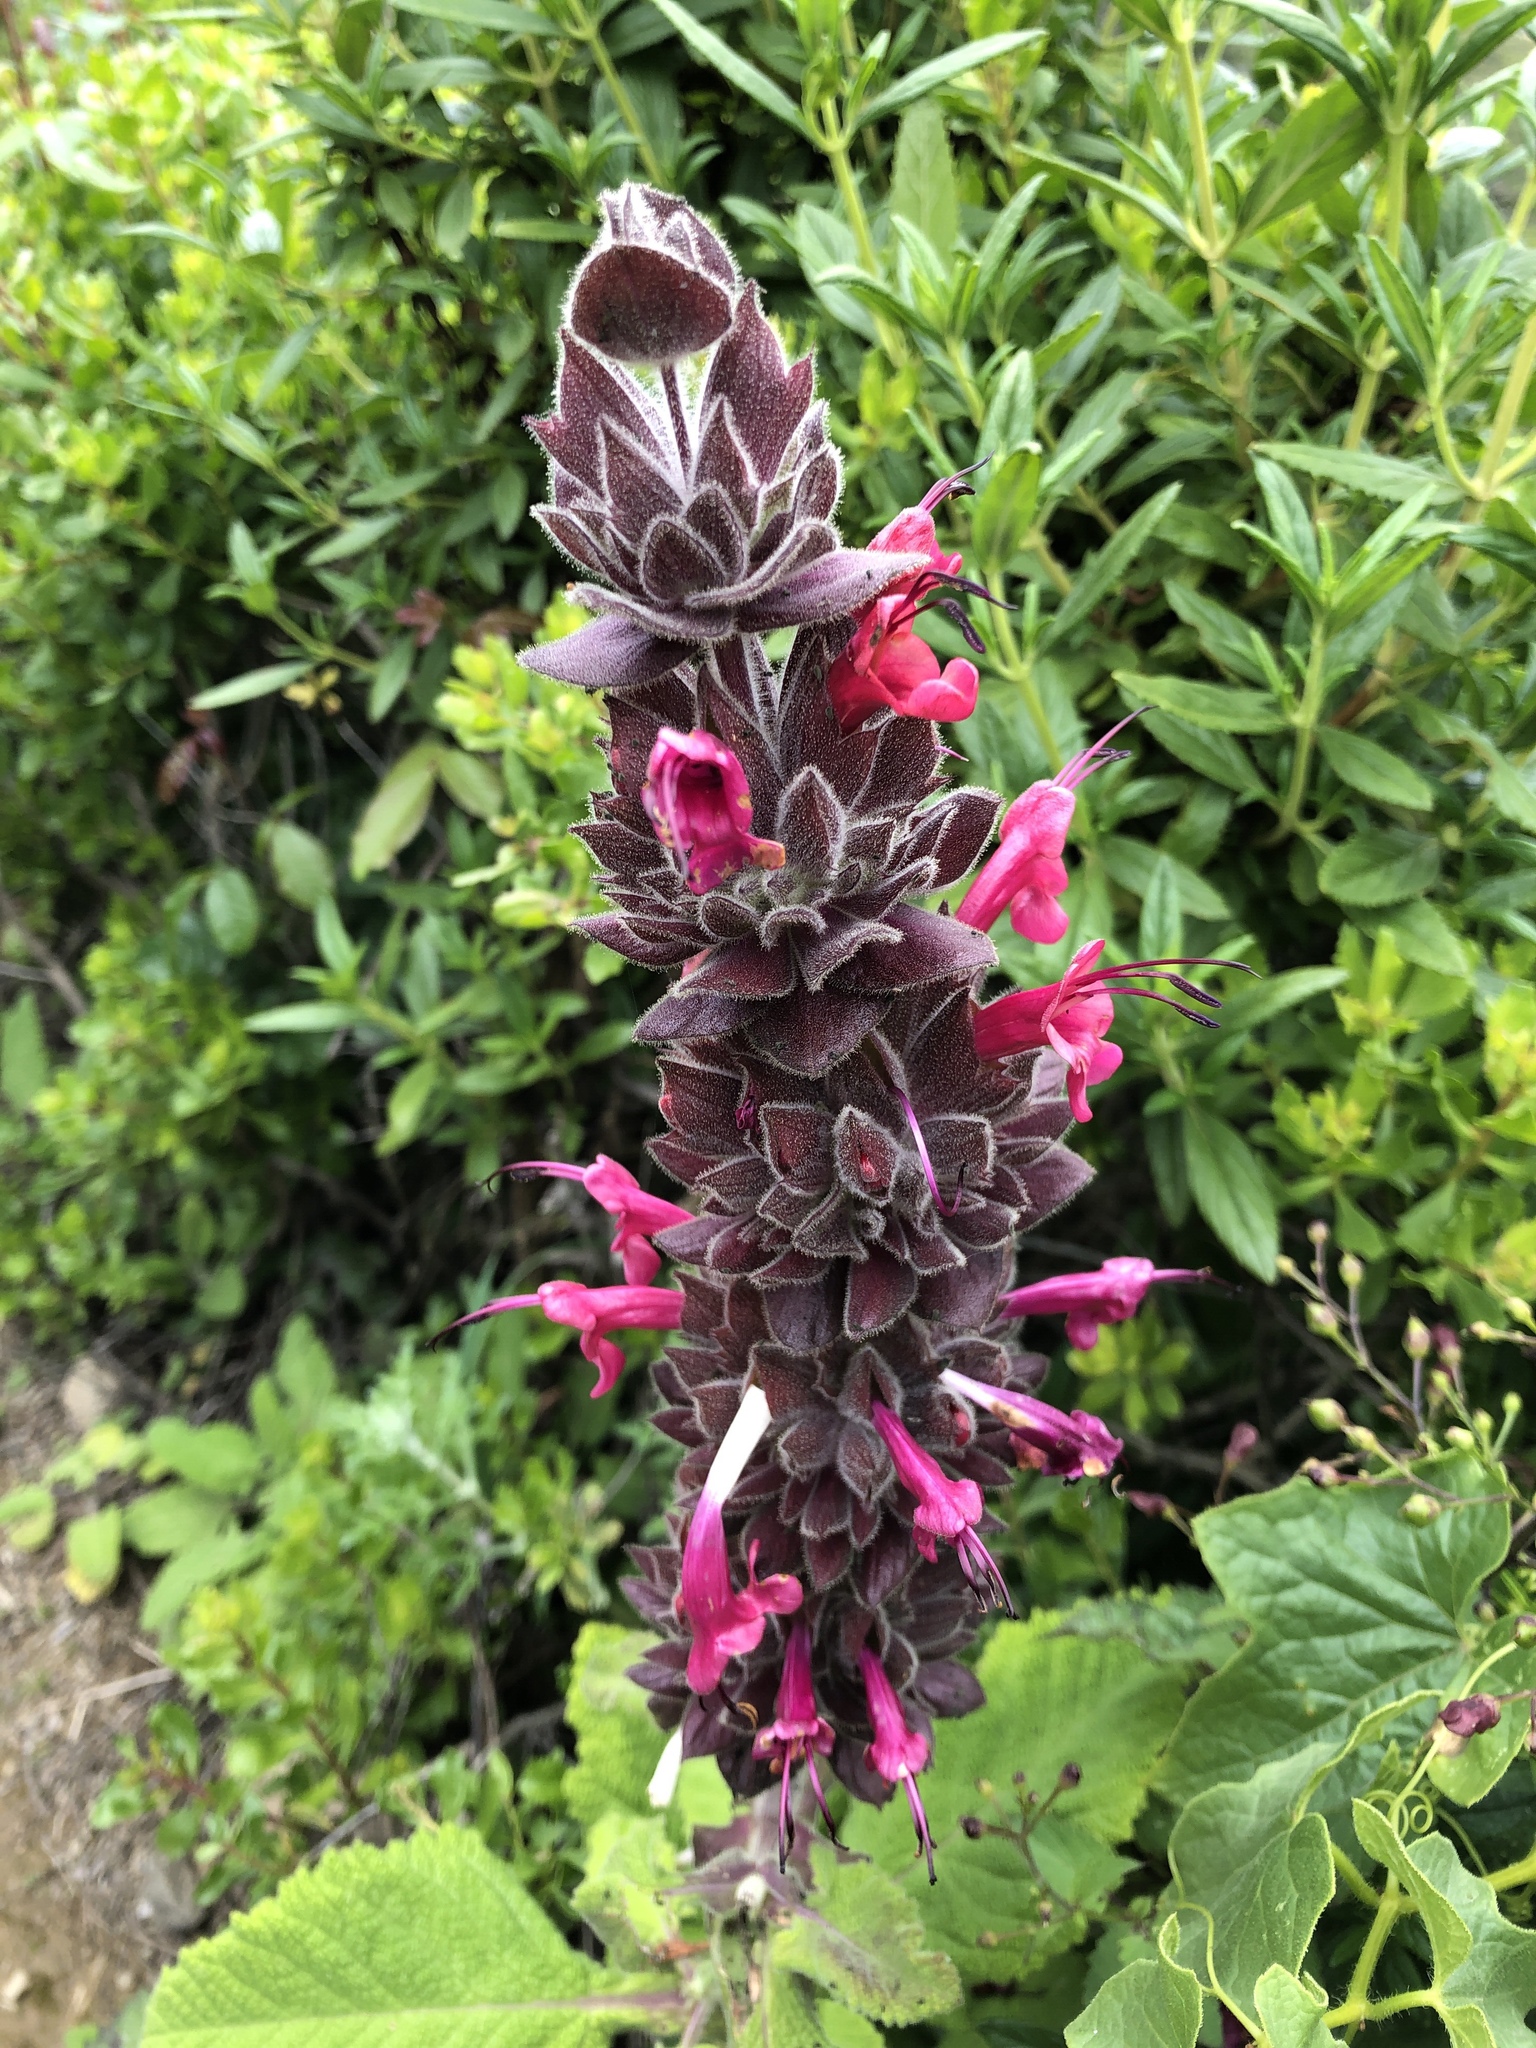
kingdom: Plantae
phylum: Tracheophyta
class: Magnoliopsida
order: Lamiales
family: Lamiaceae
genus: Salvia
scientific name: Salvia spathacea
